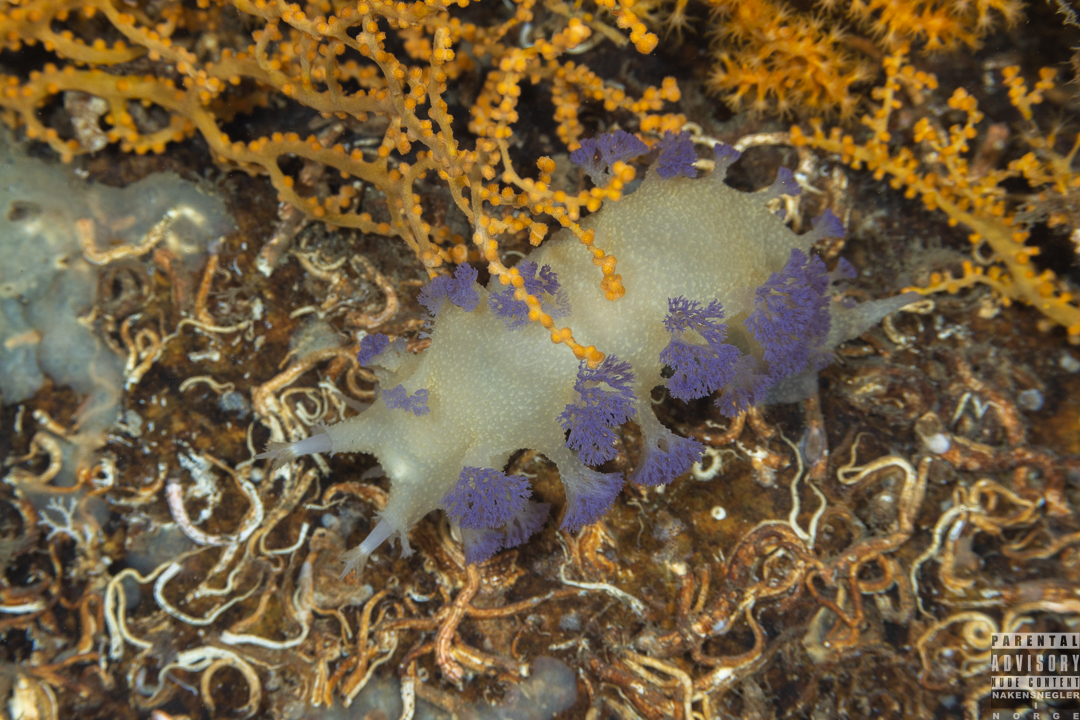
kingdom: Animalia
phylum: Mollusca
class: Gastropoda
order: Nudibranchia
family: Tritoniidae
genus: Tritonia
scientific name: Tritonia griegi
